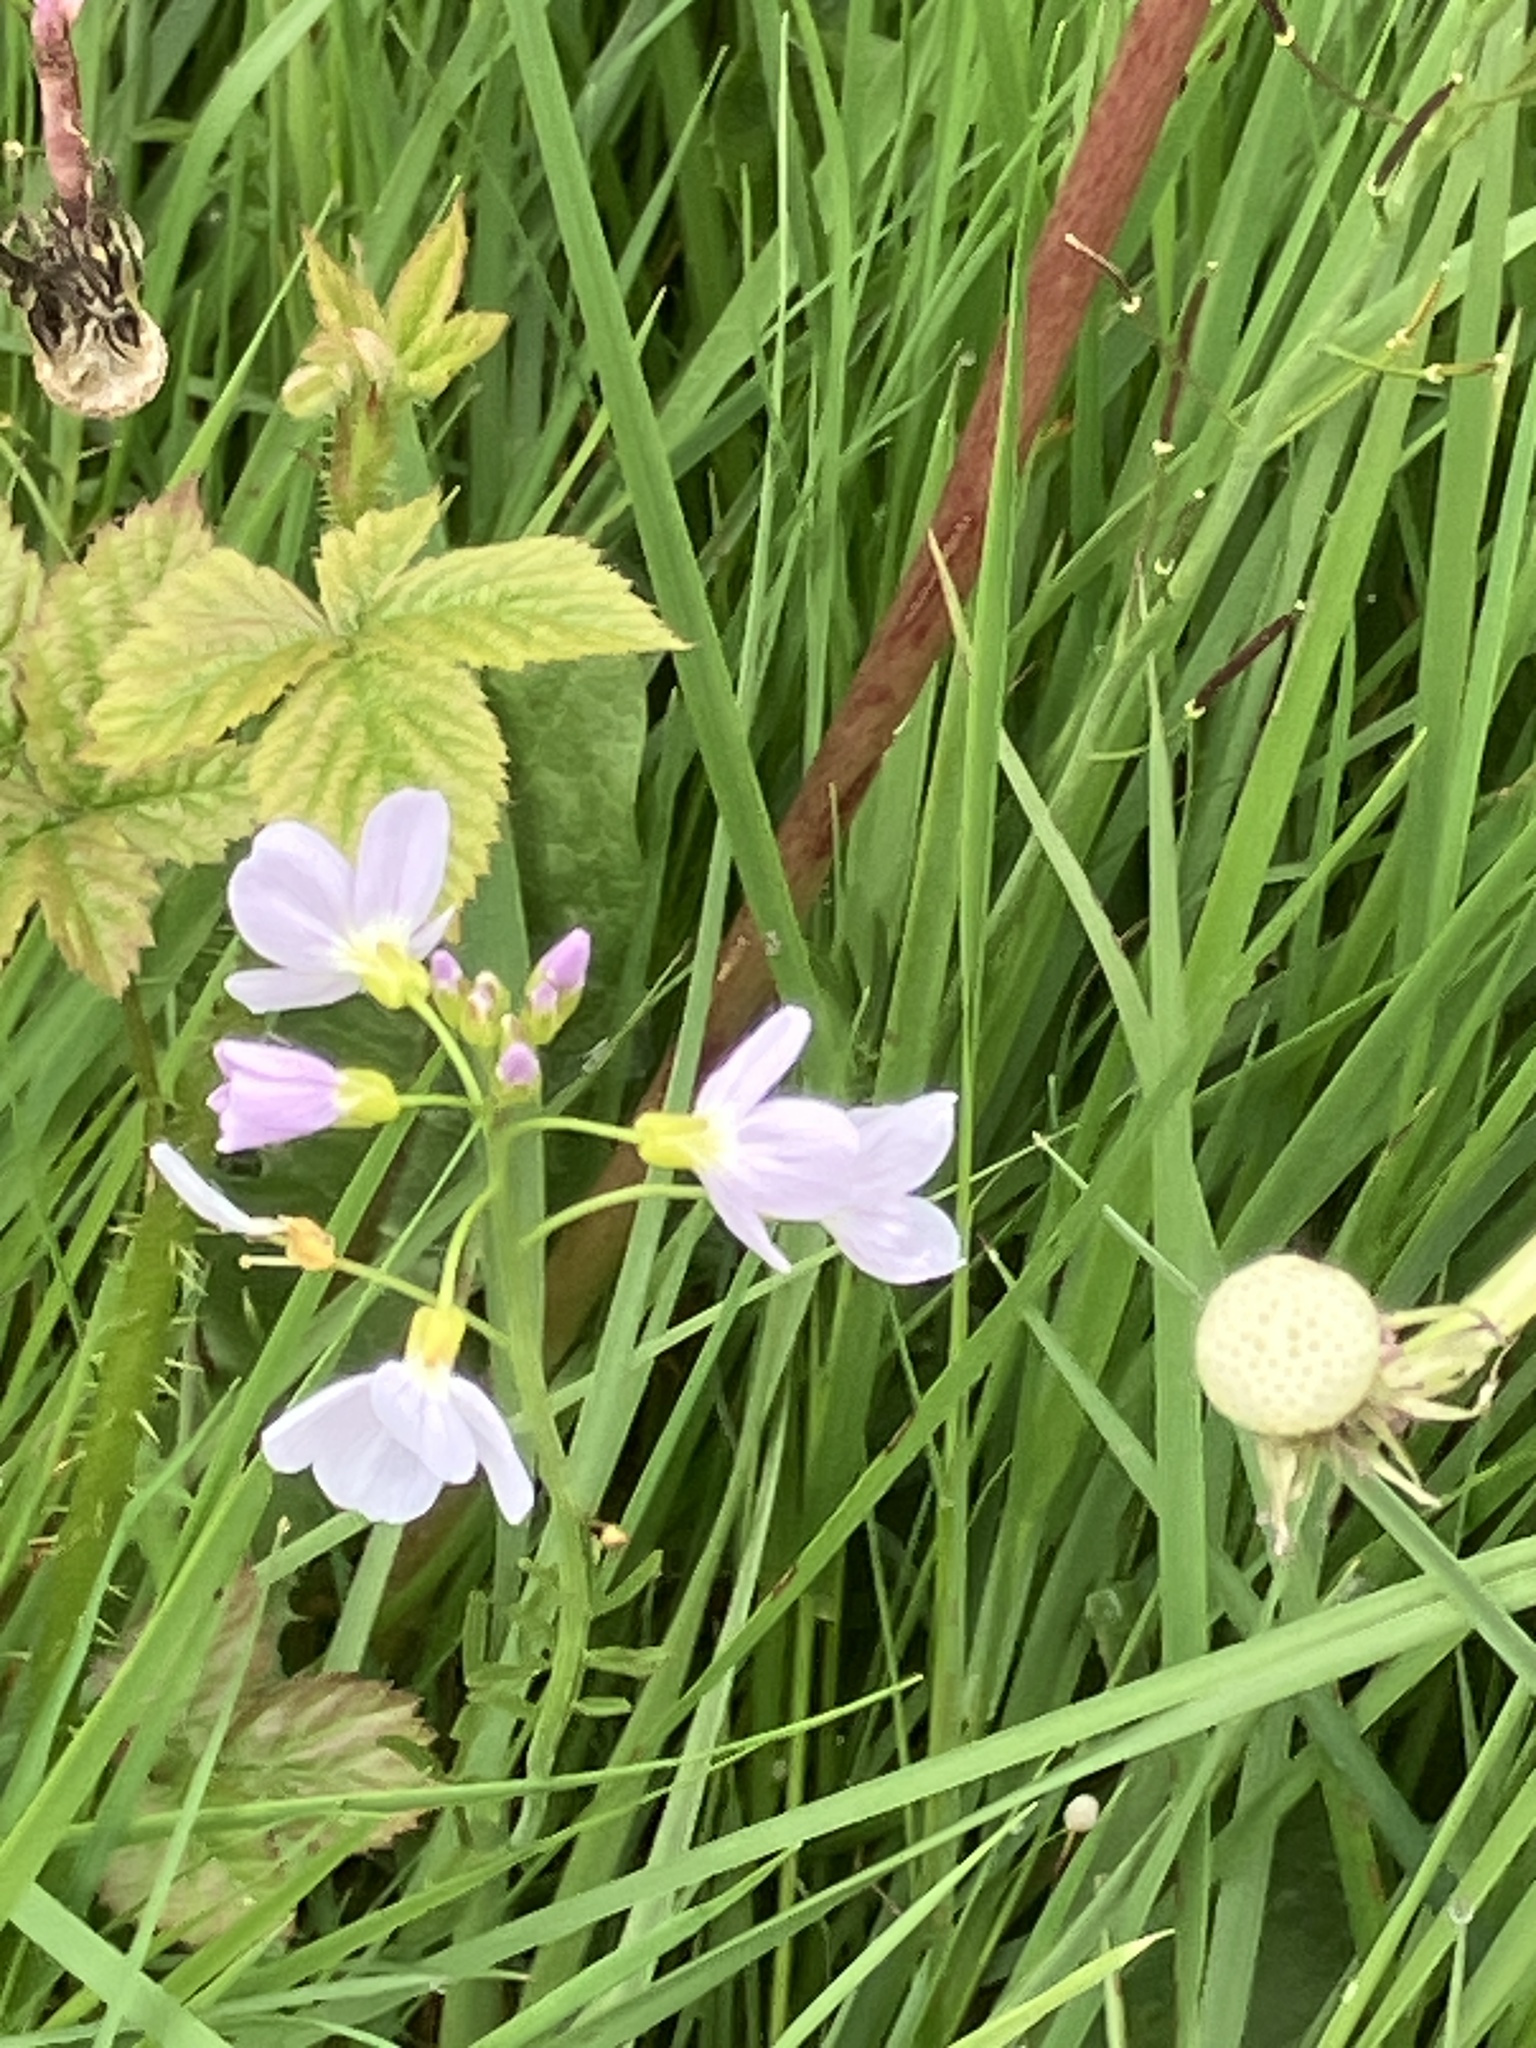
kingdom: Plantae
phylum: Tracheophyta
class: Magnoliopsida
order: Brassicales
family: Brassicaceae
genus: Cardamine
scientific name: Cardamine pratensis
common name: Cuckoo flower
